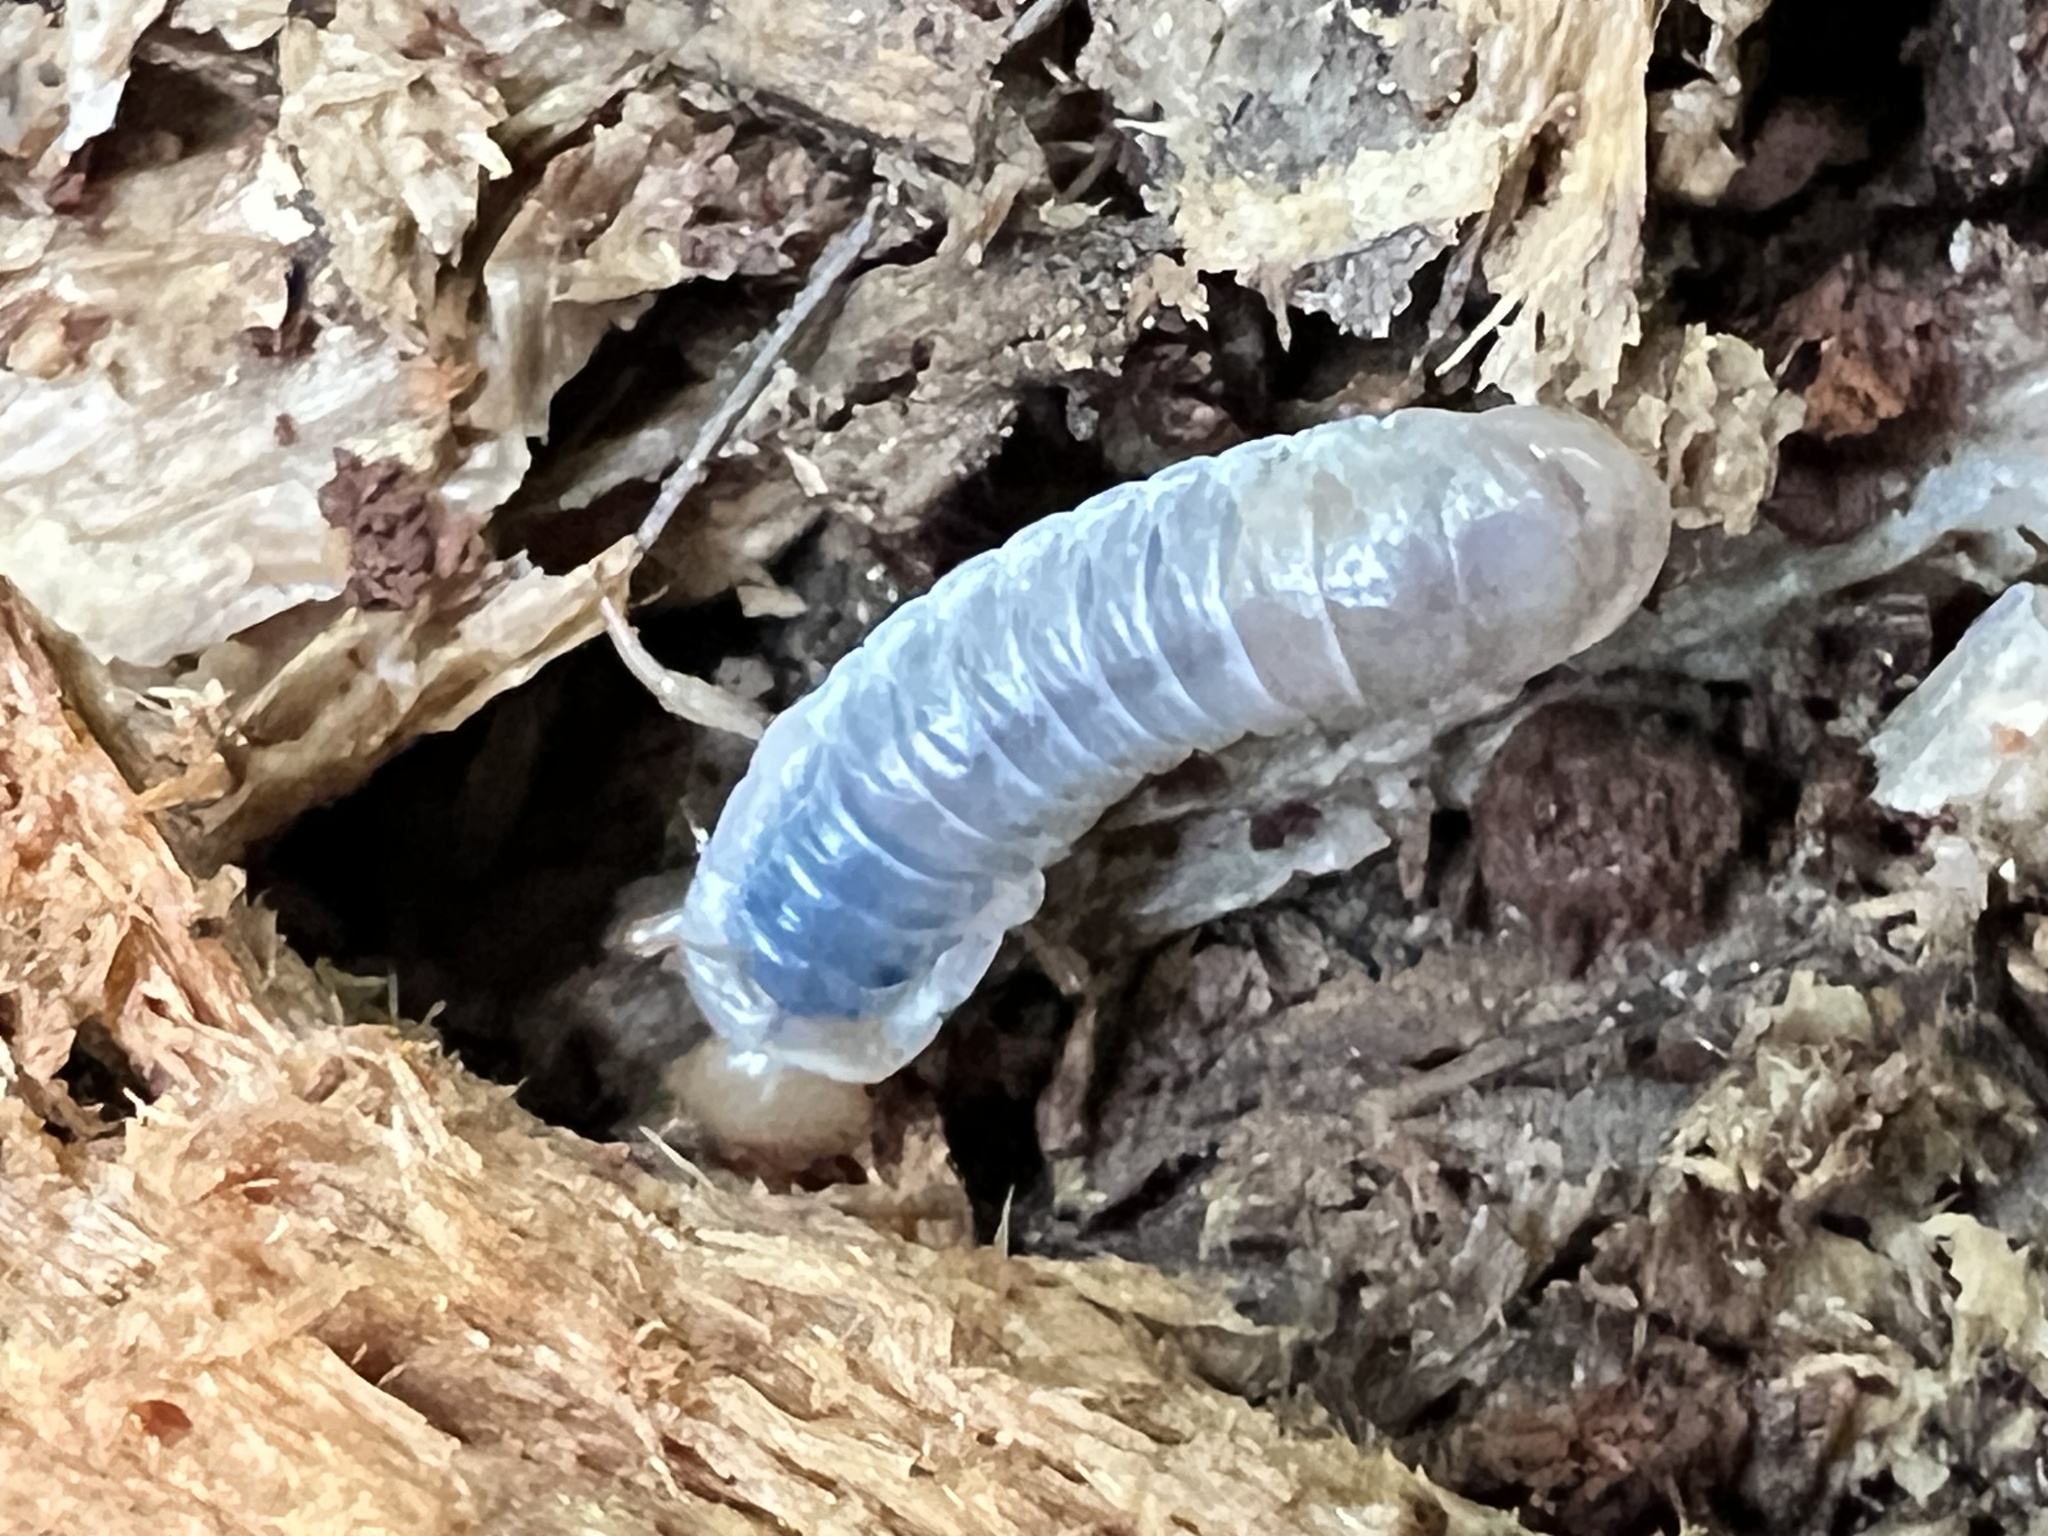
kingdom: Animalia
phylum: Arthropoda
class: Insecta
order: Coleoptera
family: Passalidae
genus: Odontotaenius
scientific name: Odontotaenius disjunctus
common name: Patent leather beetle
